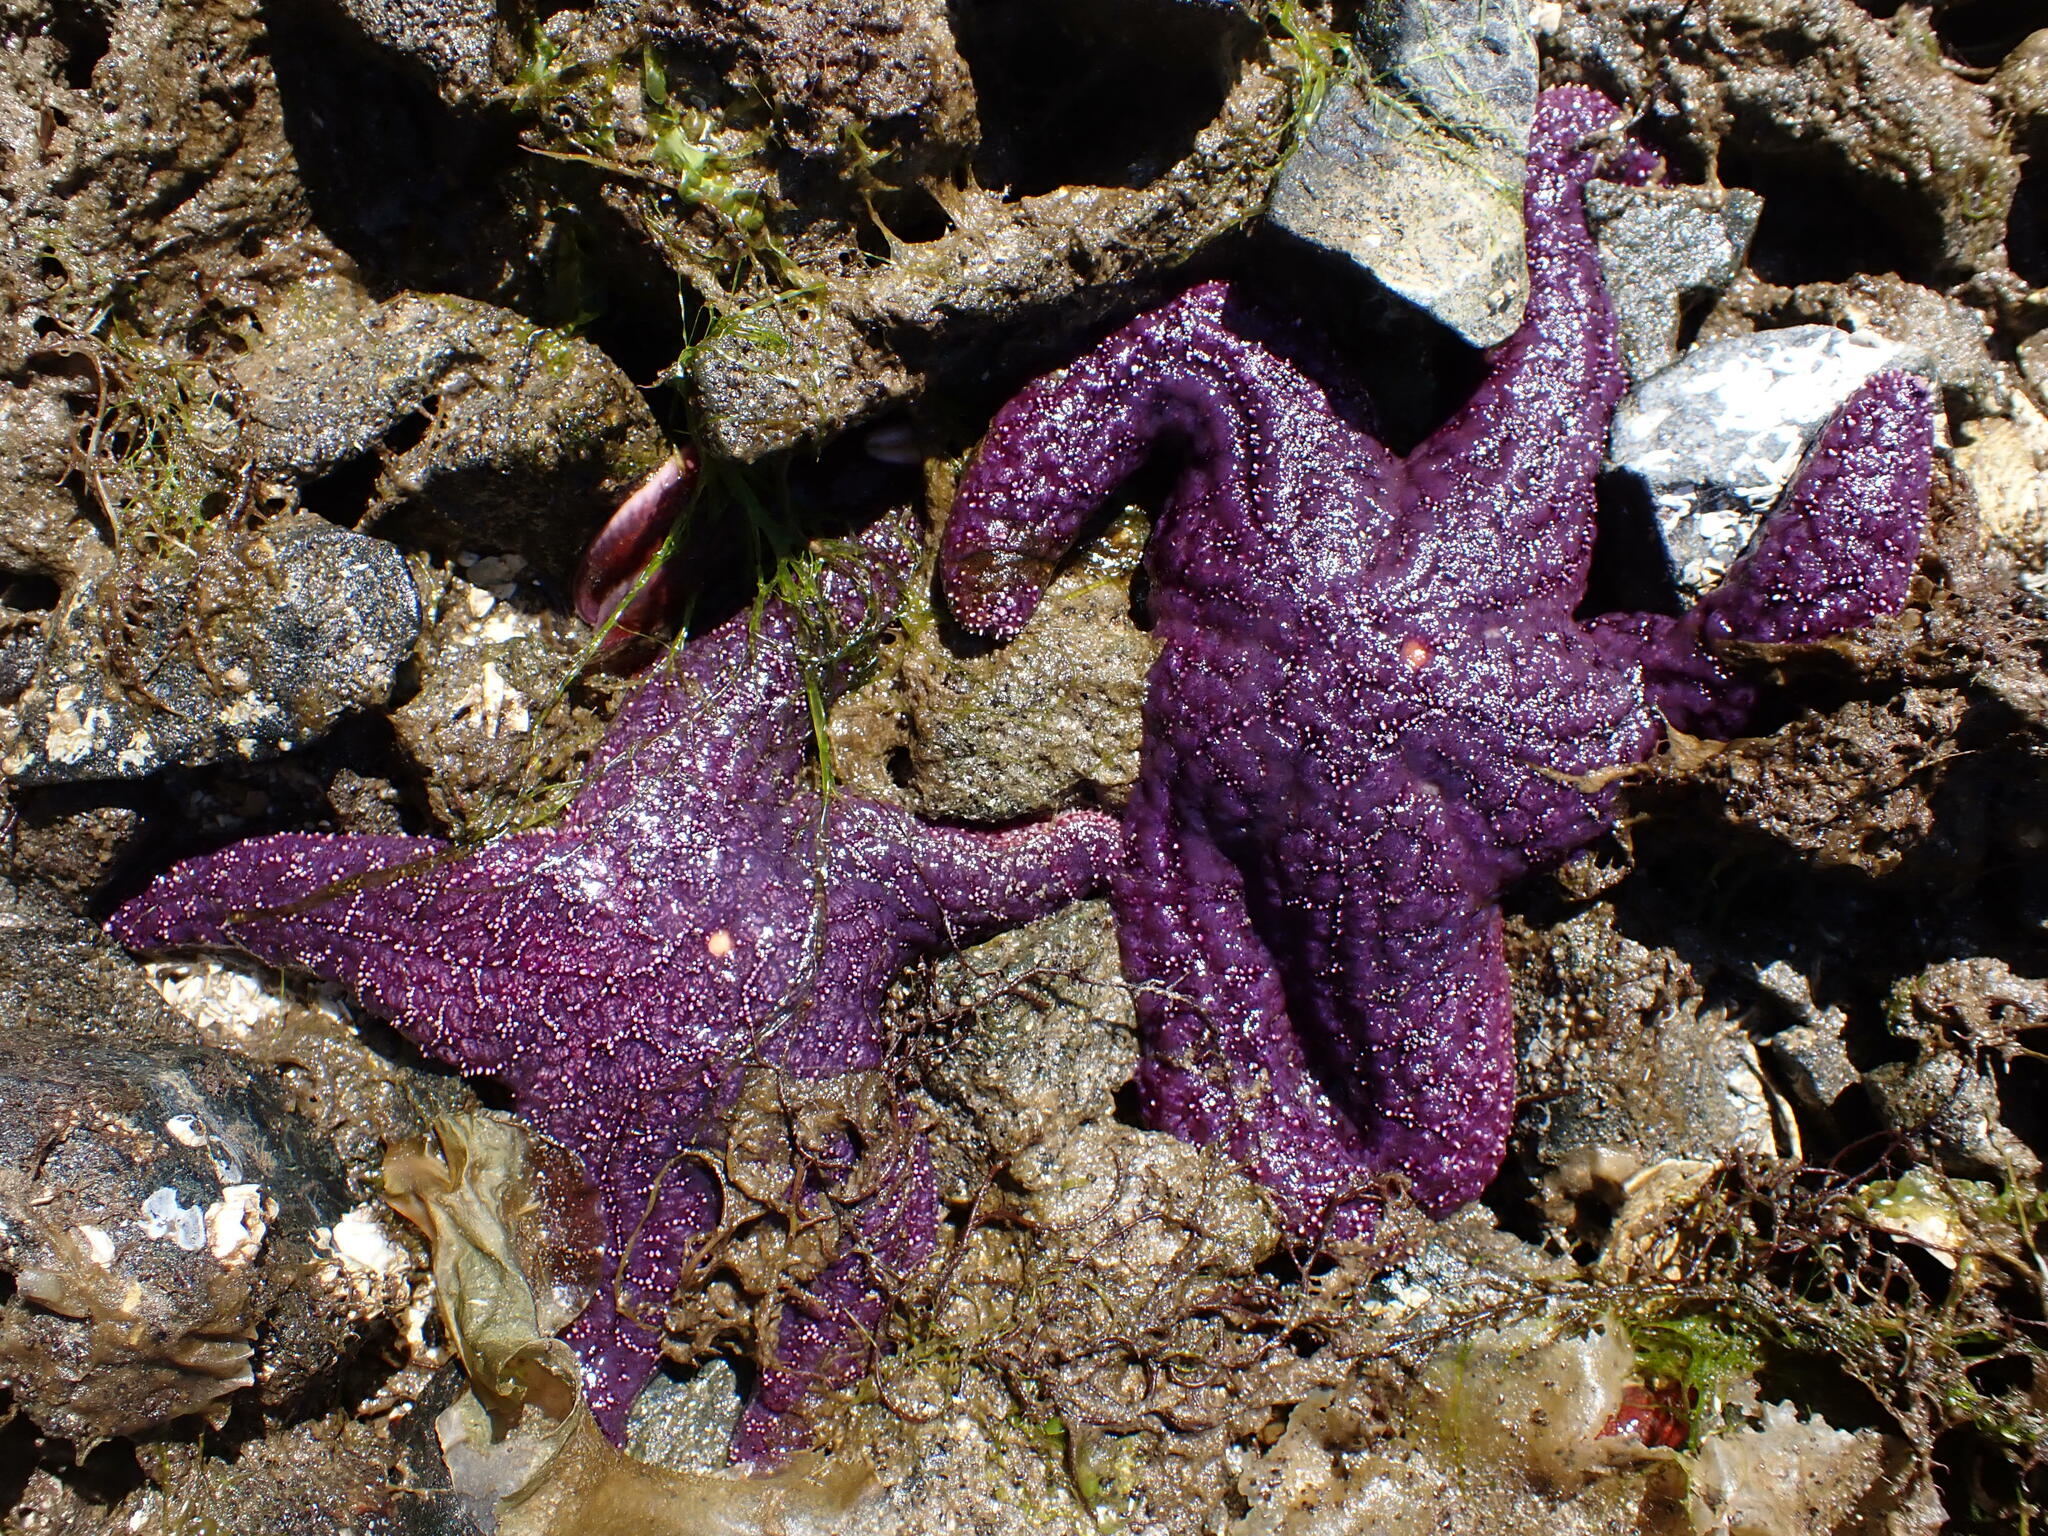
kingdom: Animalia
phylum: Echinodermata
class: Asteroidea
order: Forcipulatida
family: Asteriidae
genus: Pisaster
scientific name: Pisaster ochraceus
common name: Ochre stars
